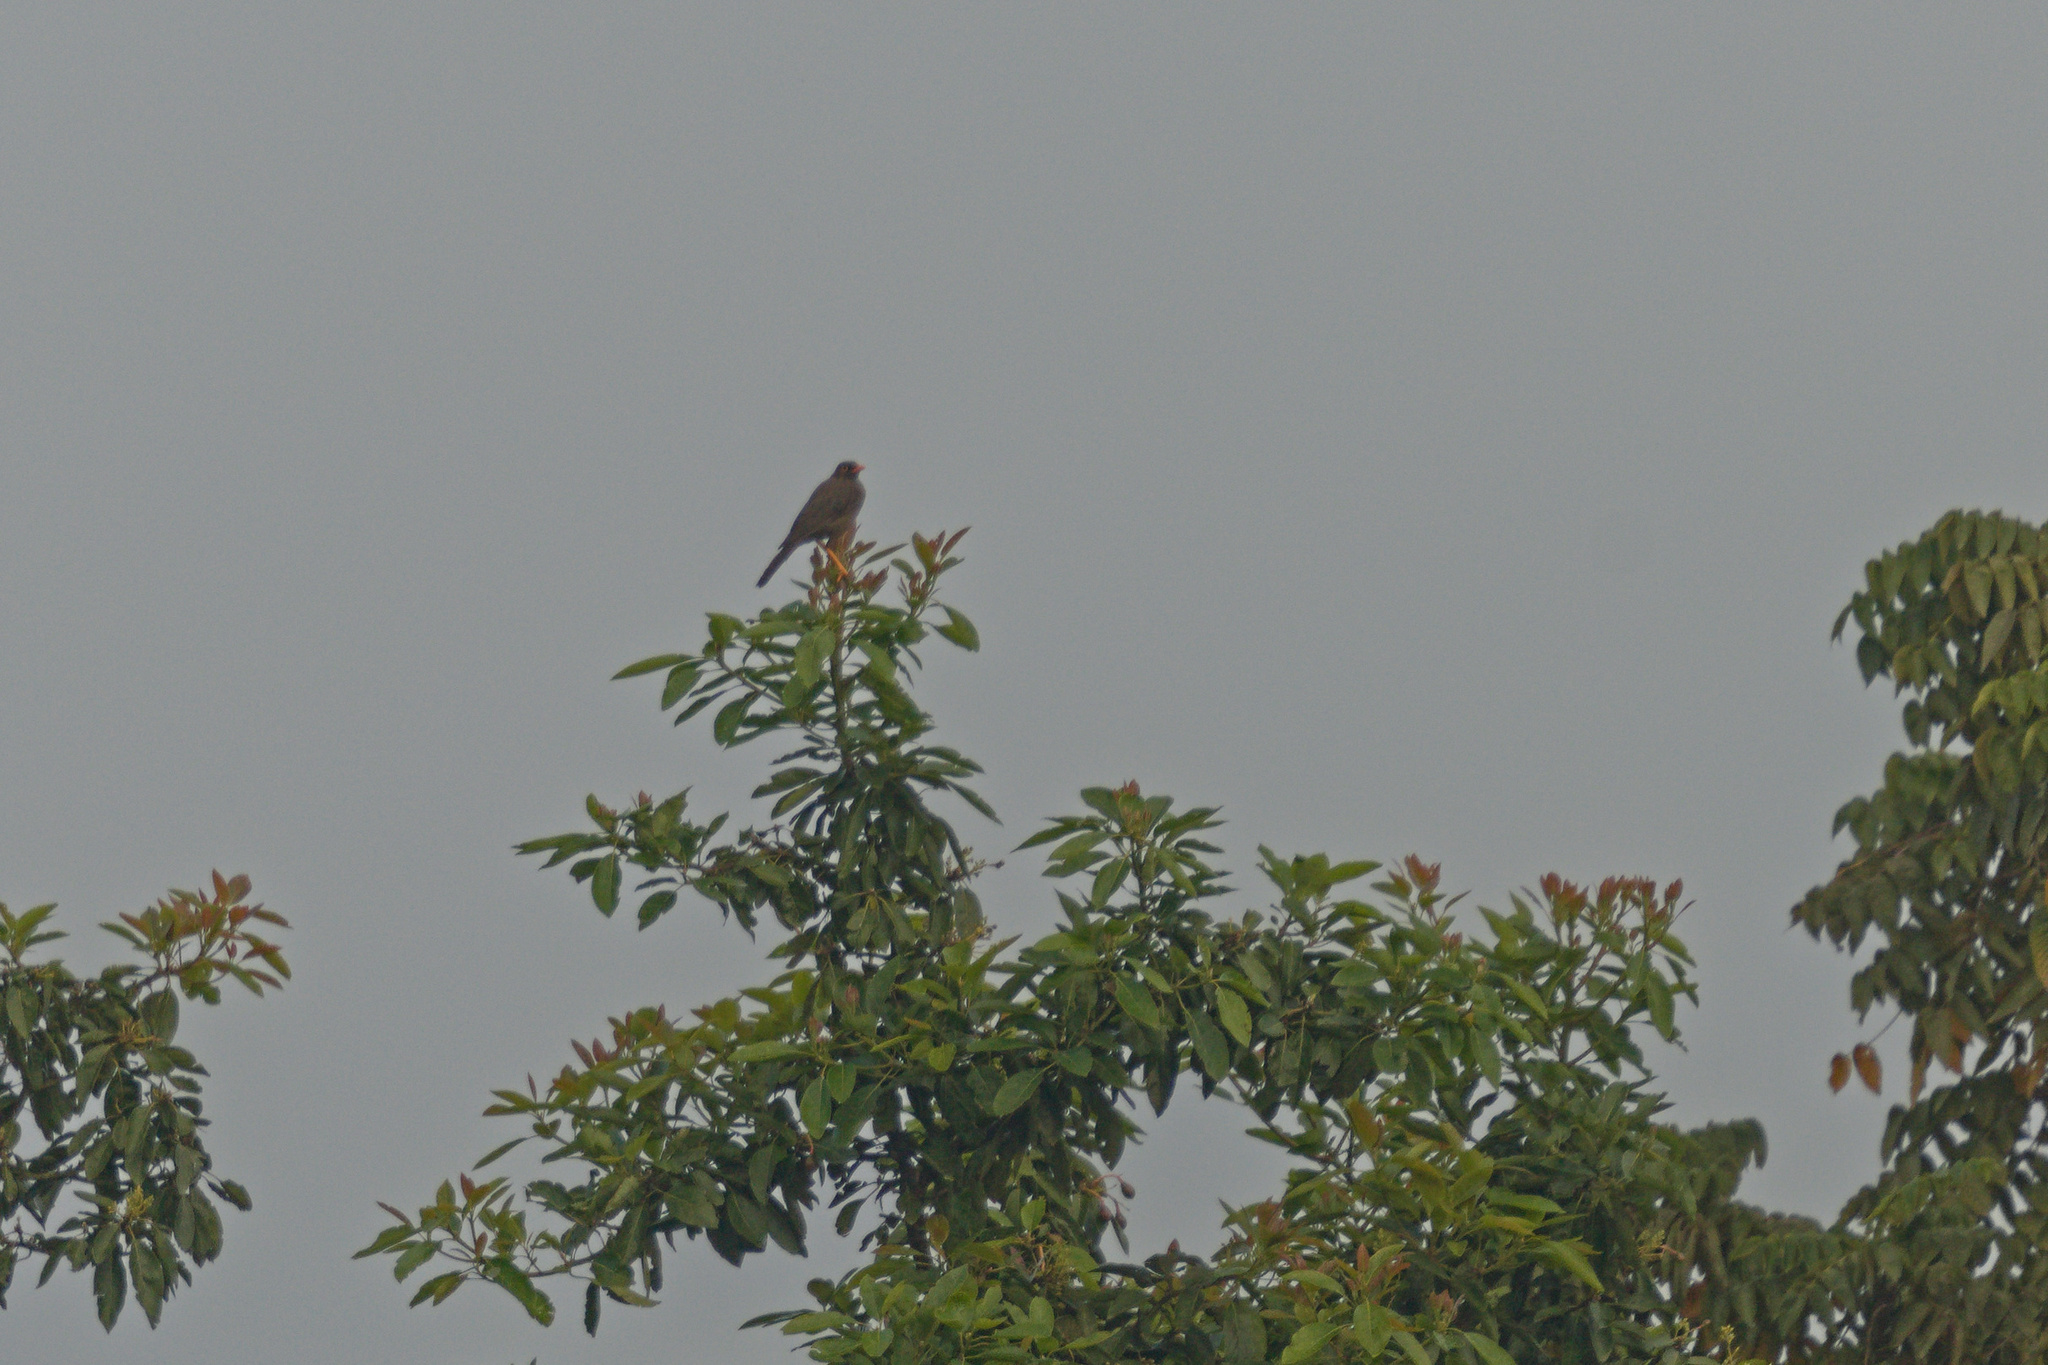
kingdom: Animalia
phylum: Chordata
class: Aves
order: Passeriformes
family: Turdidae
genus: Turdus
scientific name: Turdus fuscater
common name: Great thrush
